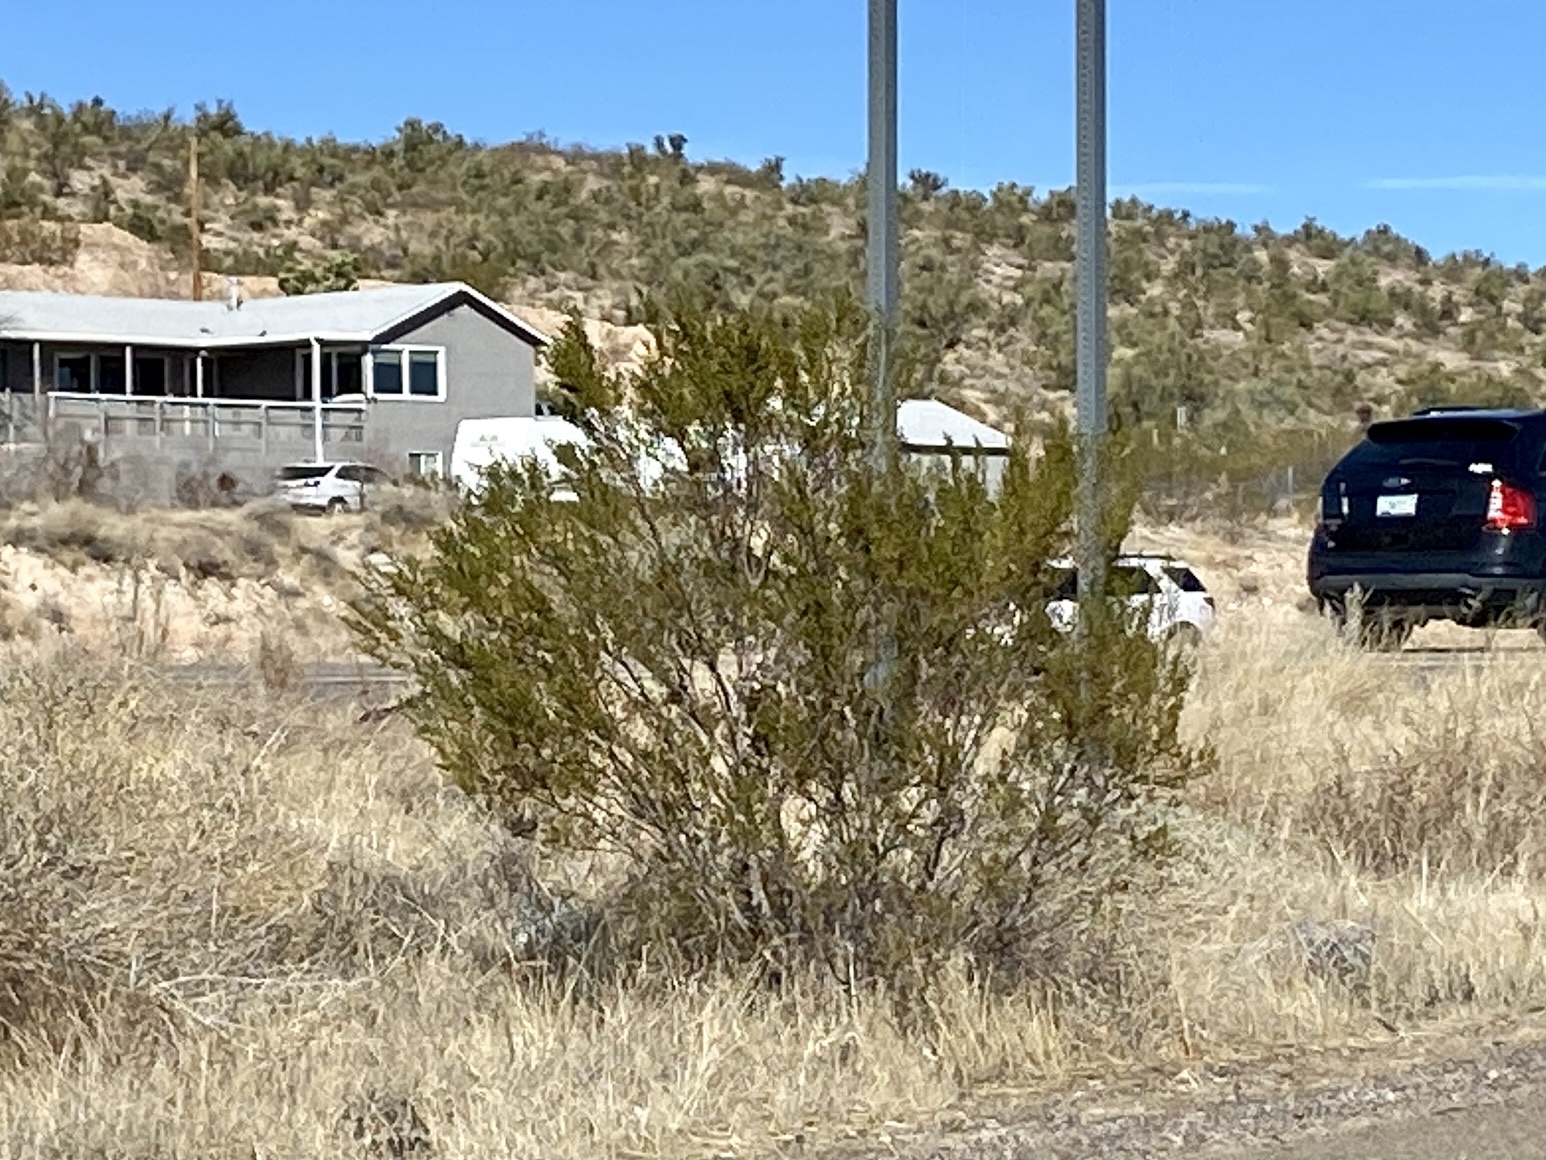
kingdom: Plantae
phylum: Tracheophyta
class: Magnoliopsida
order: Zygophyllales
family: Zygophyllaceae
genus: Larrea
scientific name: Larrea tridentata
